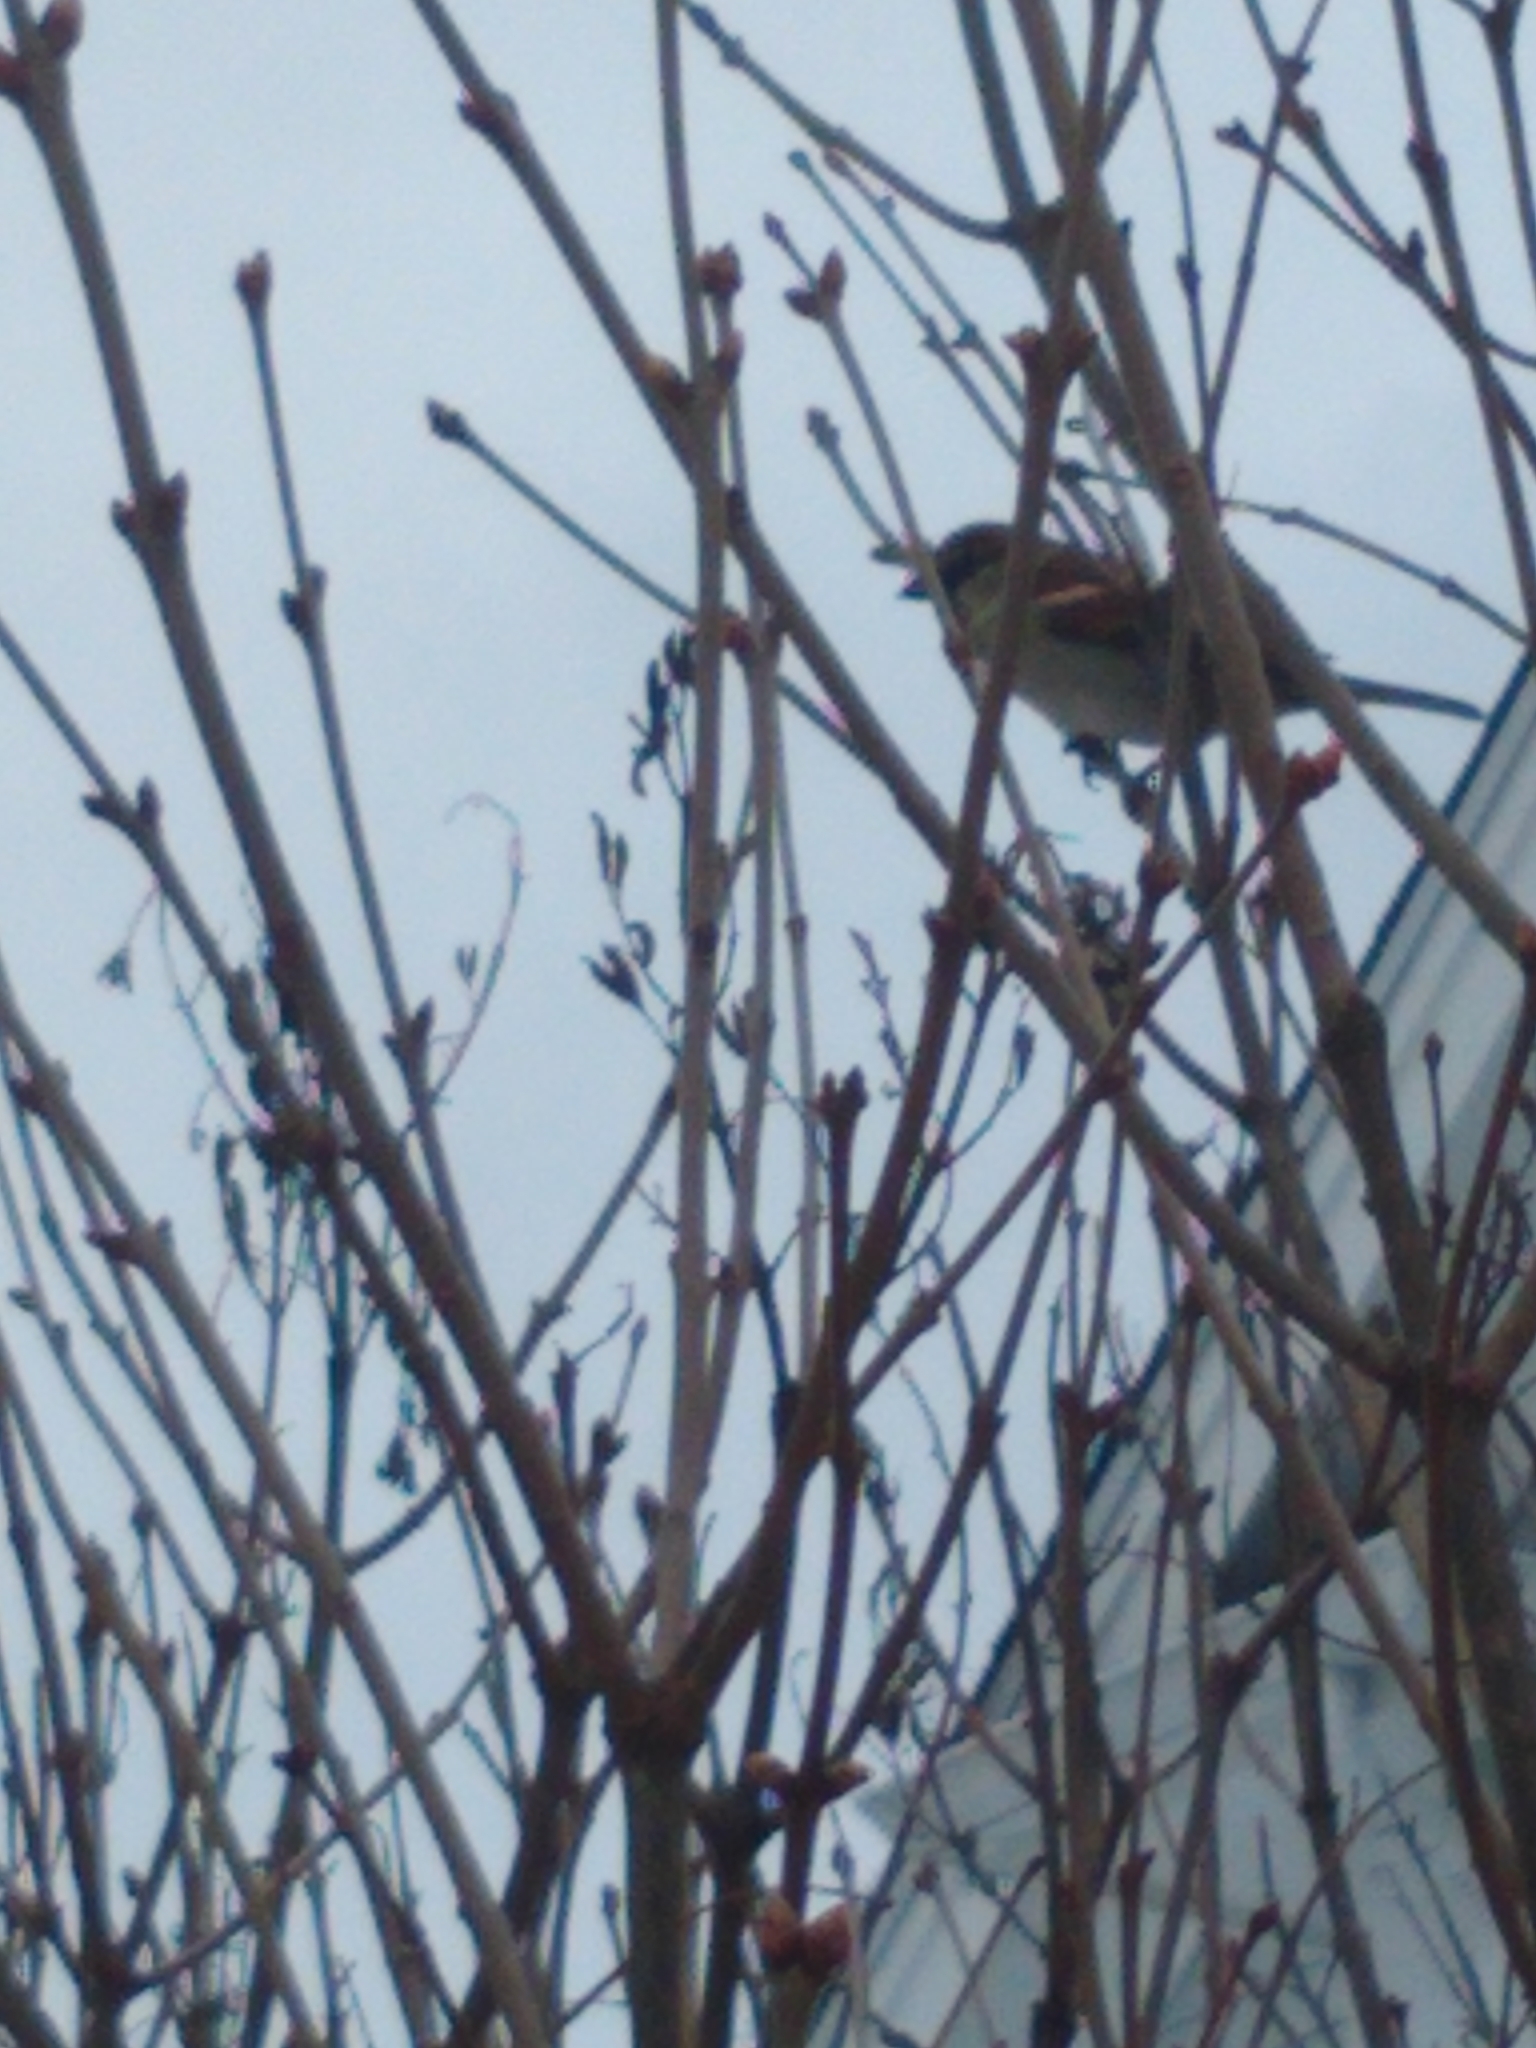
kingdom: Animalia
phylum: Chordata
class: Aves
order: Passeriformes
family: Passeridae
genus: Passer
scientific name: Passer domesticus
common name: House sparrow
